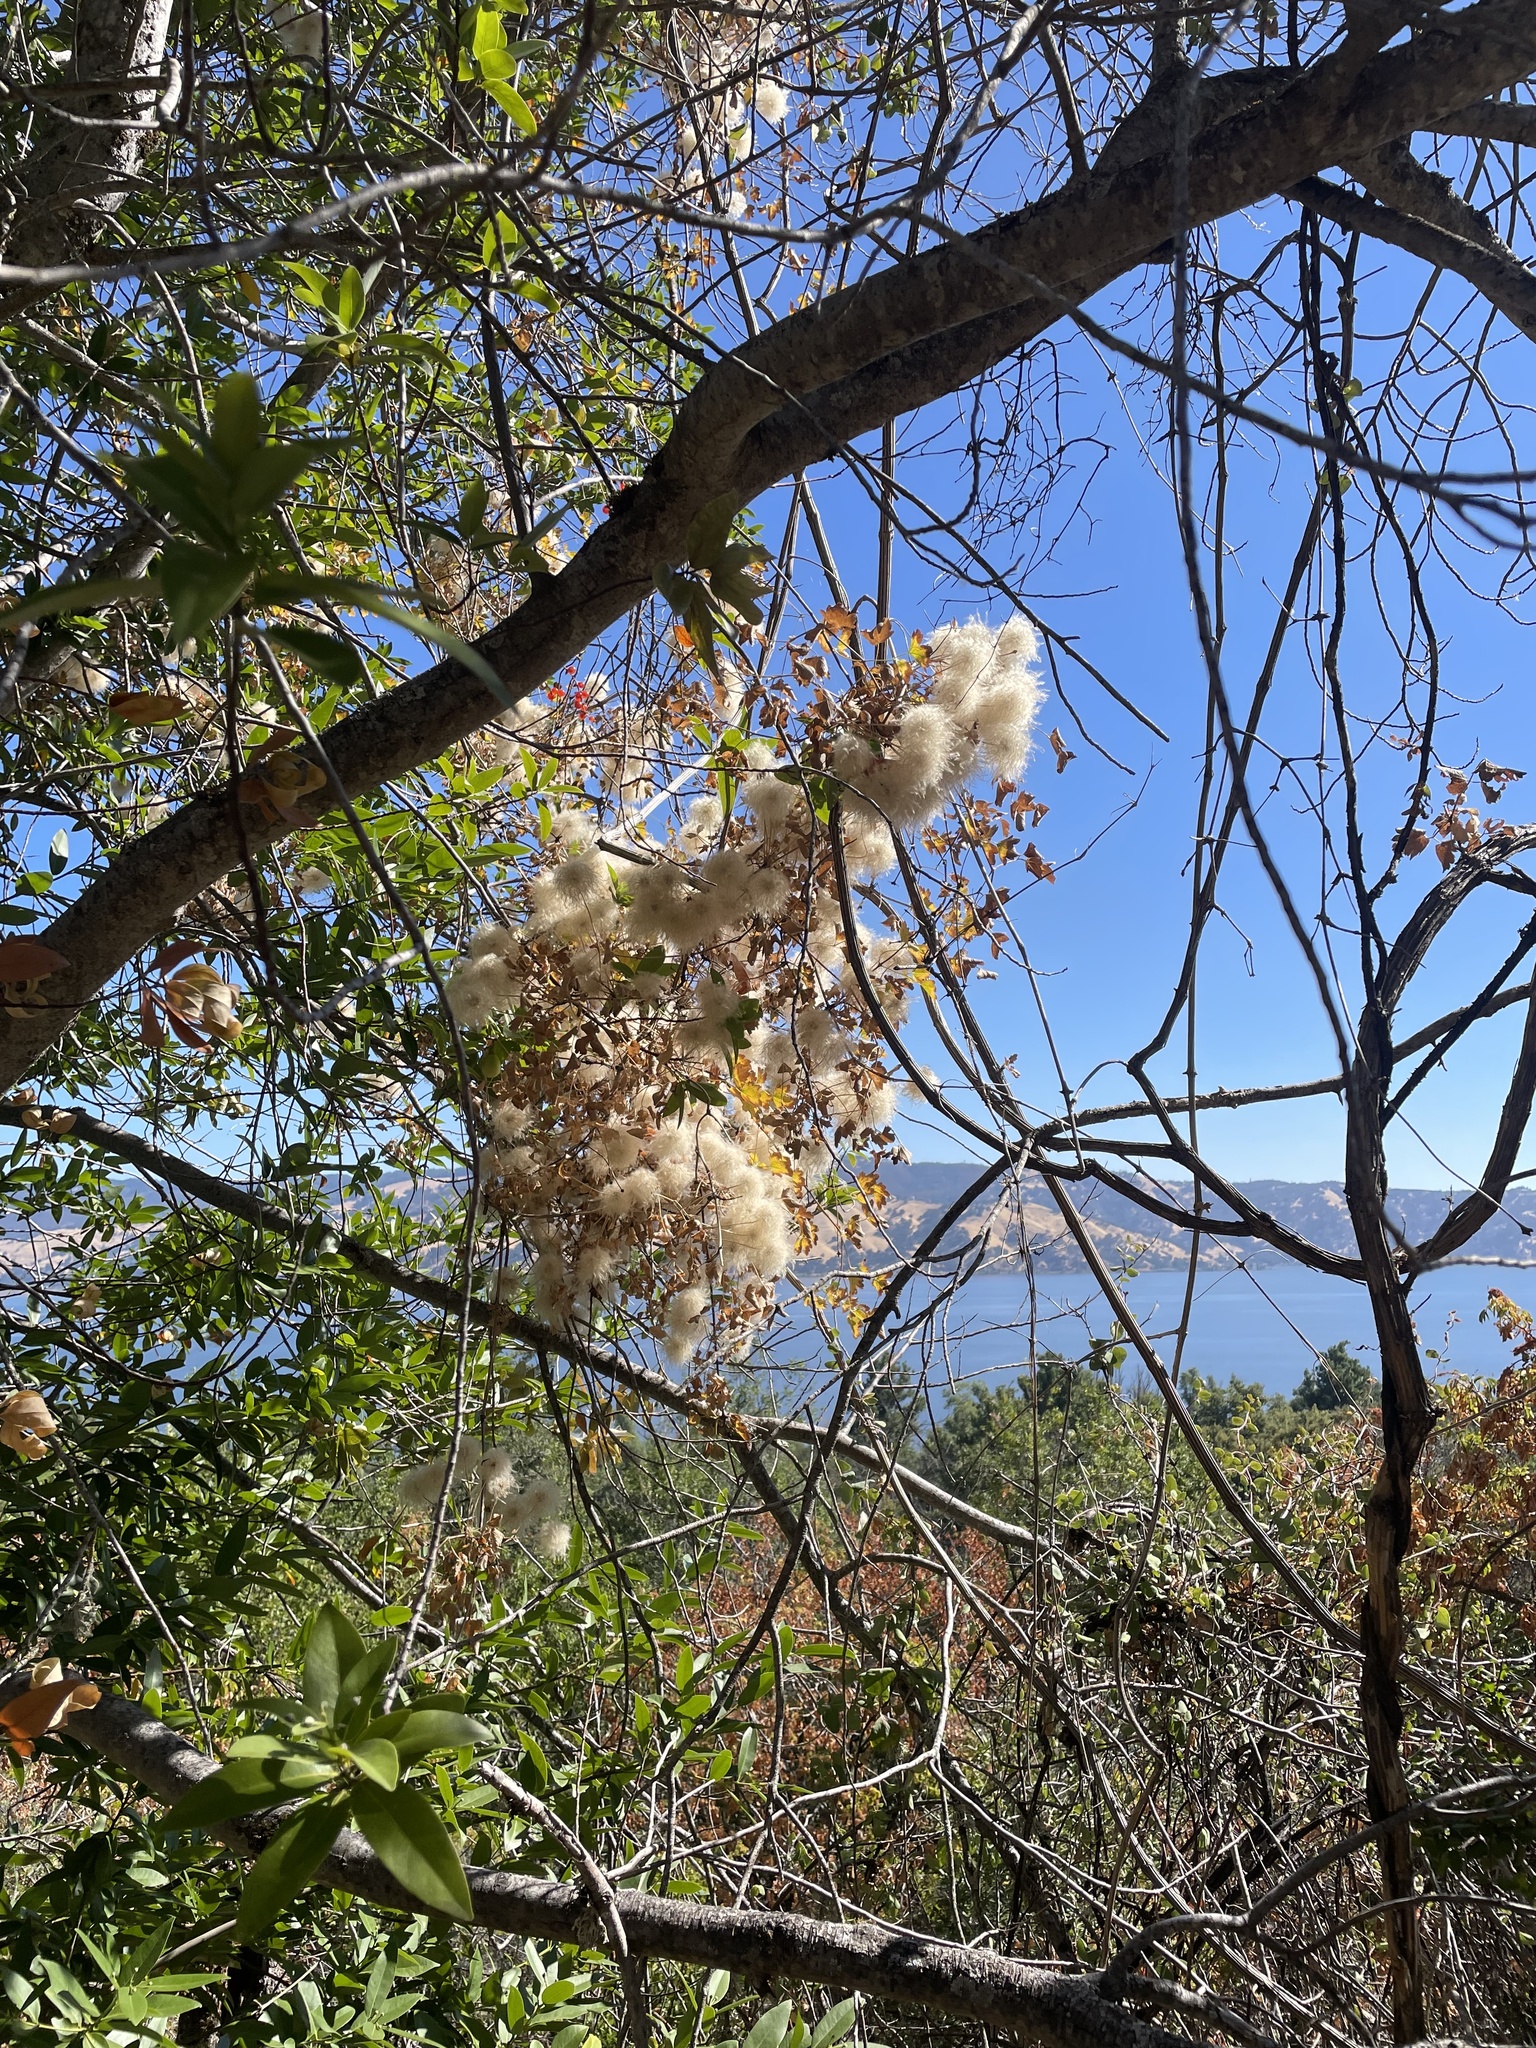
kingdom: Plantae
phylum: Tracheophyta
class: Magnoliopsida
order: Ranunculales
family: Ranunculaceae
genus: Clematis
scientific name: Clematis lasiantha
